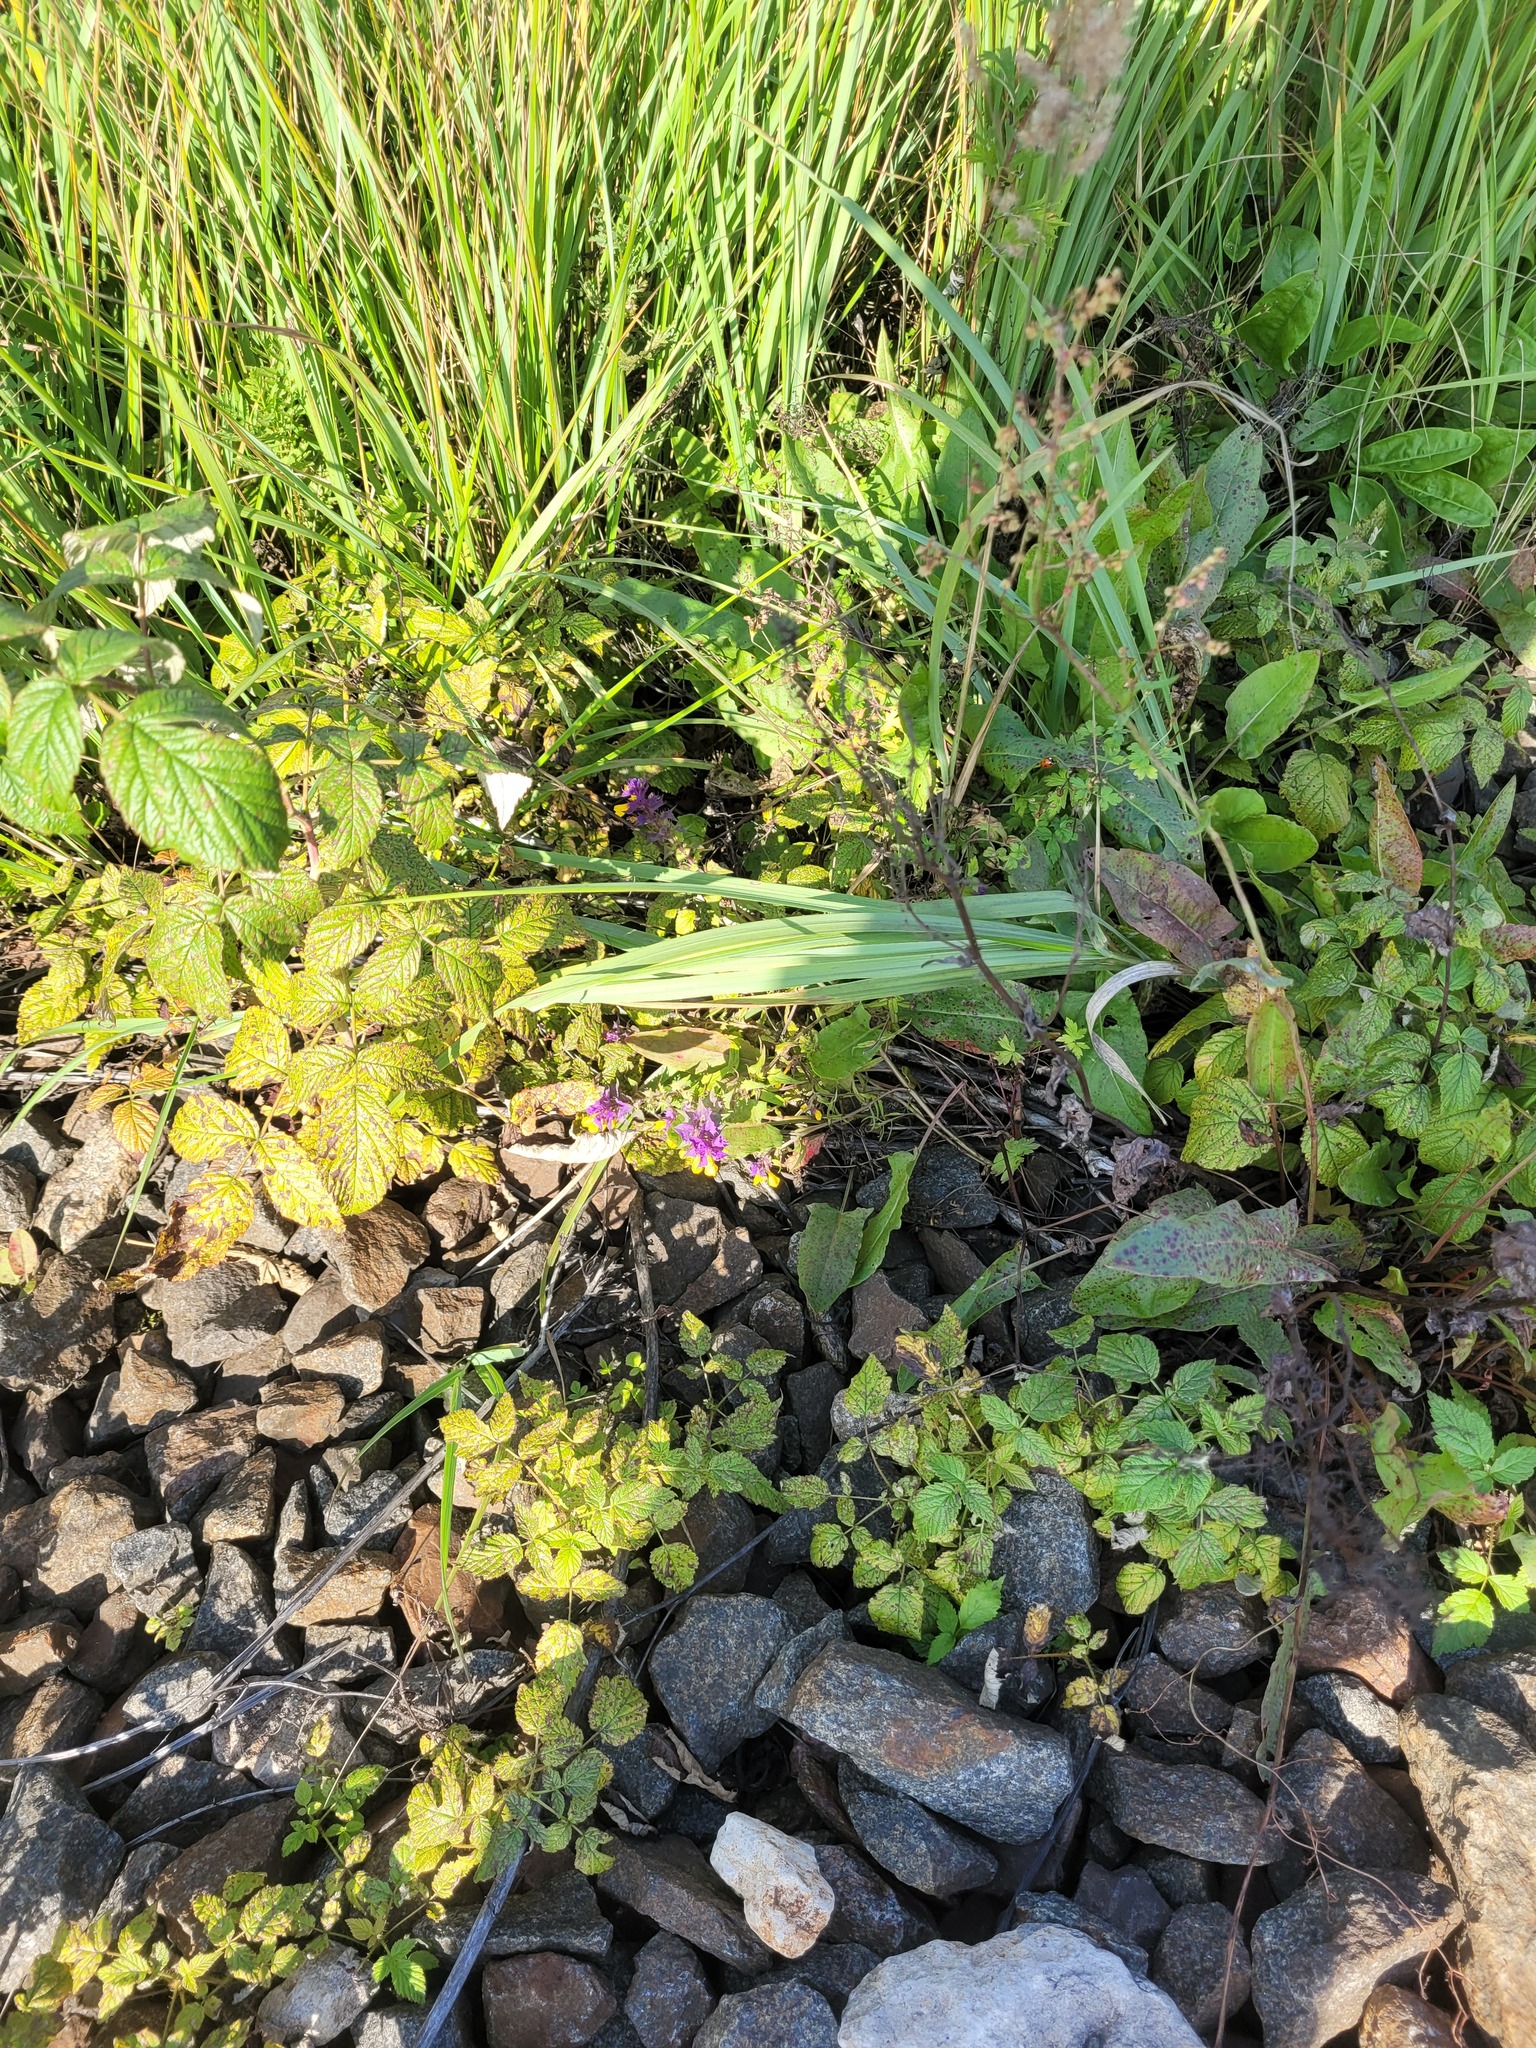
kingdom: Plantae
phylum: Tracheophyta
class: Magnoliopsida
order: Lamiales
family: Orobanchaceae
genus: Melampyrum
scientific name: Melampyrum nemorosum
